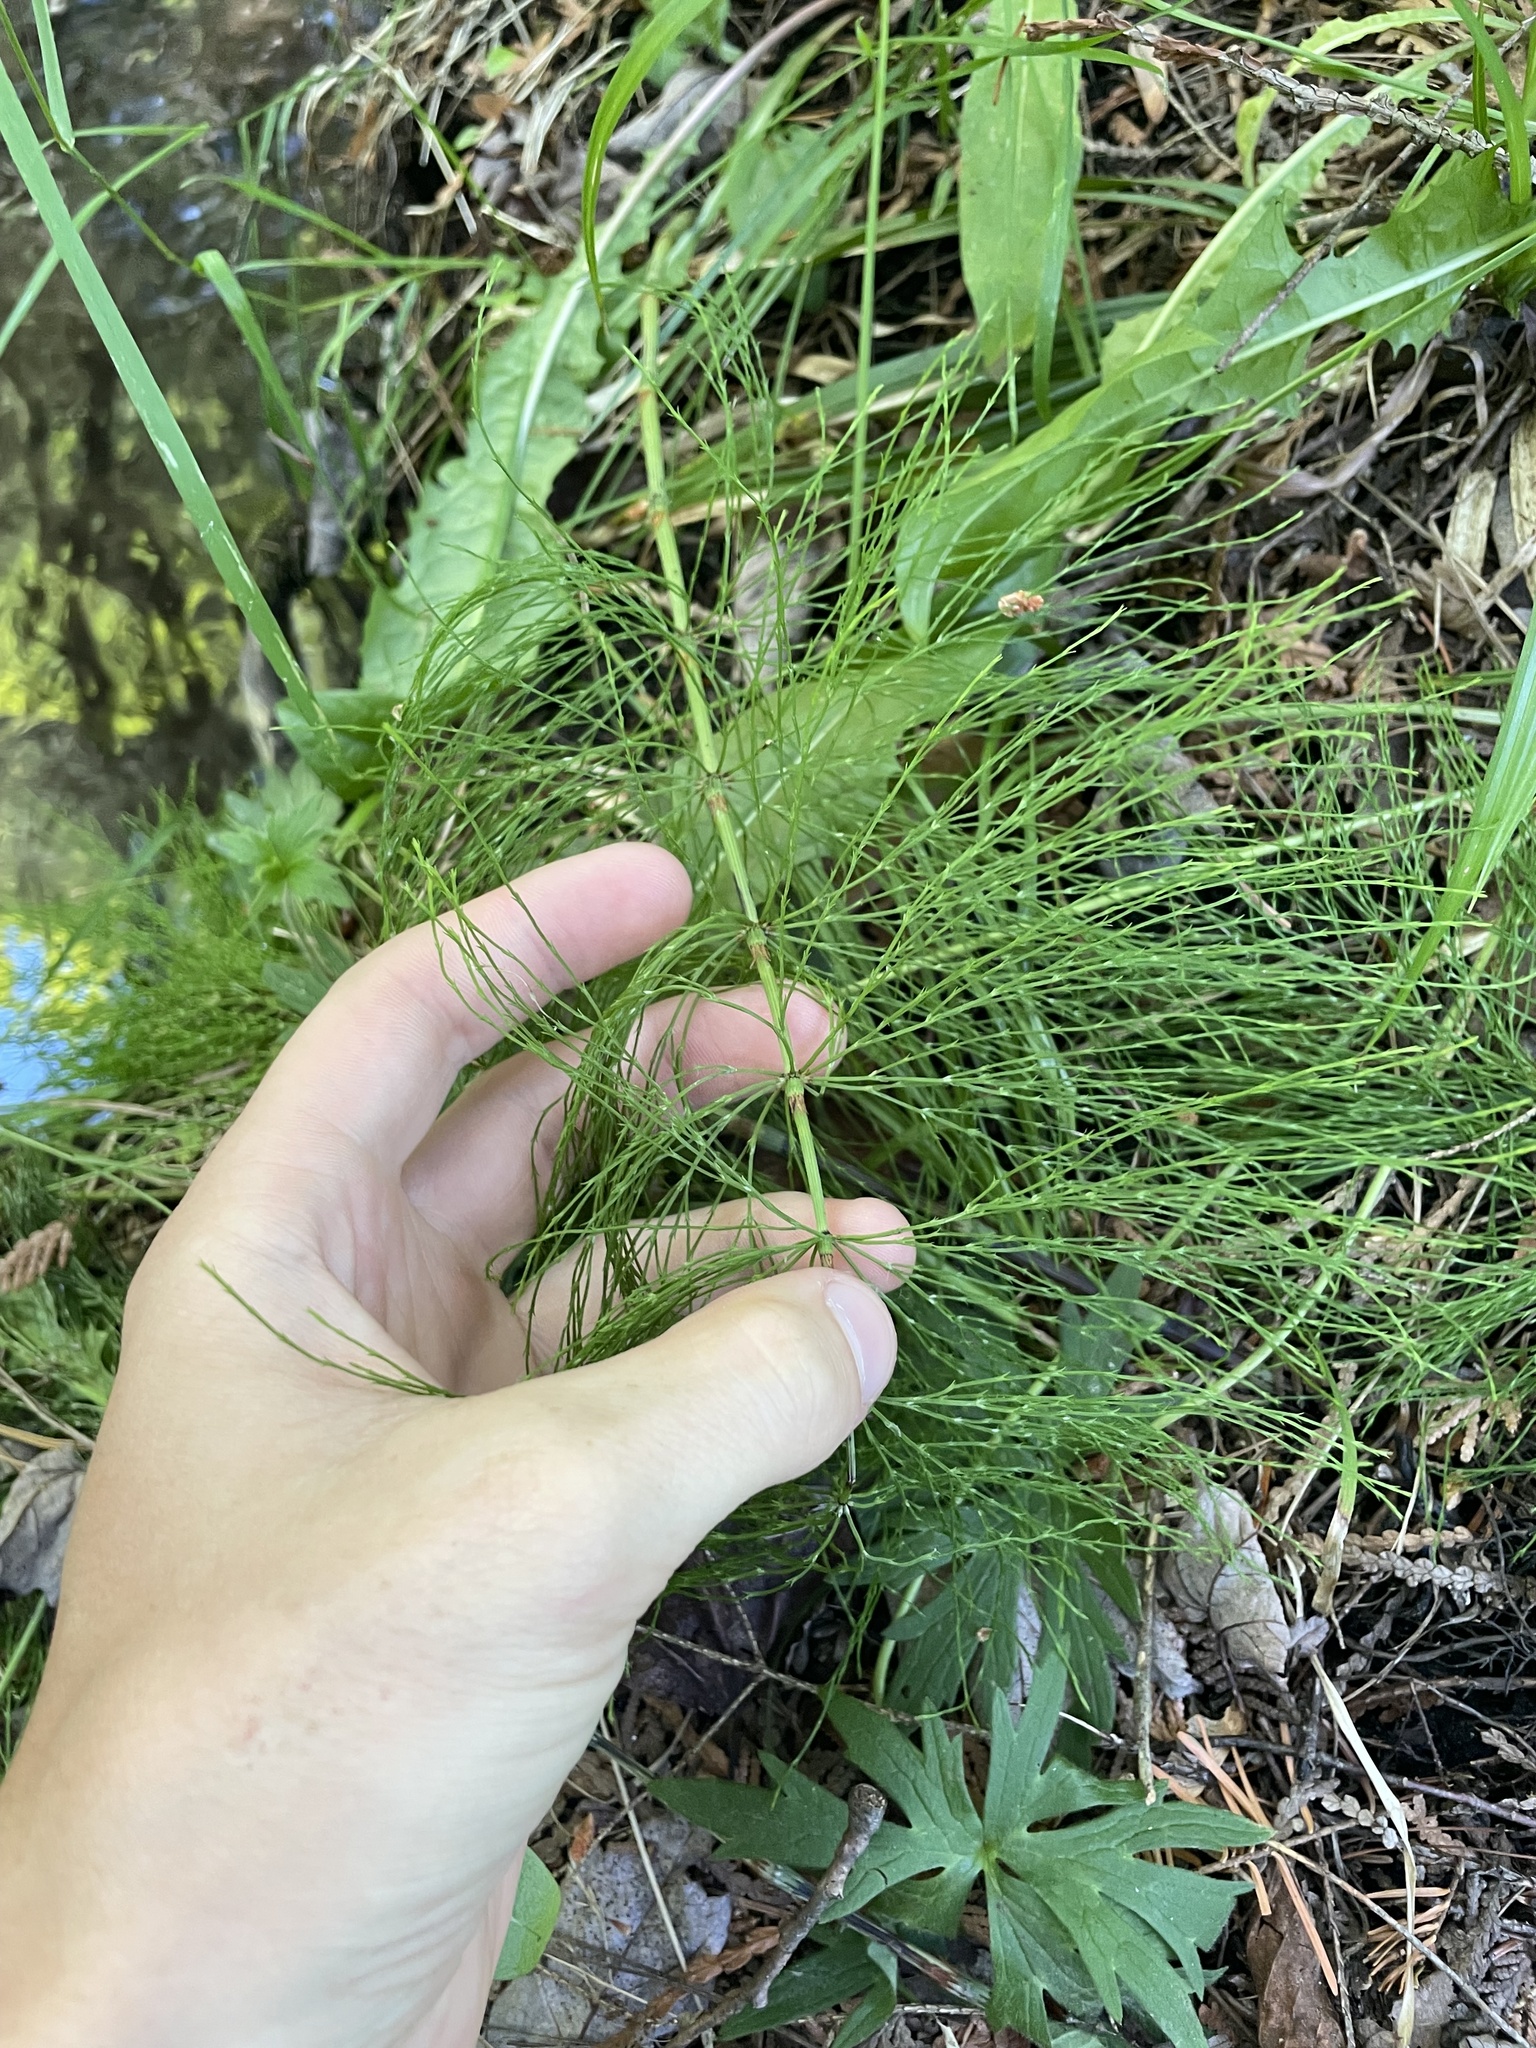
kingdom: Plantae
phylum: Tracheophyta
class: Polypodiopsida
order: Equisetales
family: Equisetaceae
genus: Equisetum
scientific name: Equisetum sylvaticum
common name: Wood horsetail
